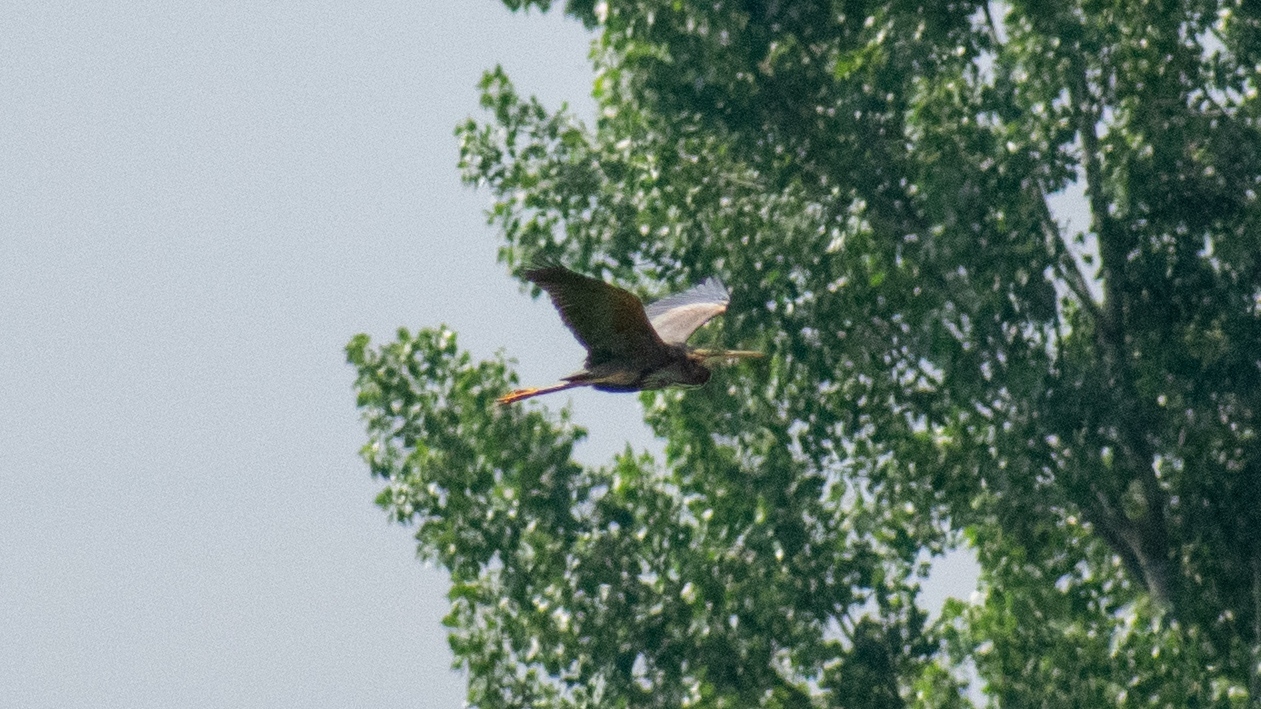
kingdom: Animalia
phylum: Chordata
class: Aves
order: Pelecaniformes
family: Ardeidae
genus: Ardea
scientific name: Ardea purpurea
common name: Purple heron
